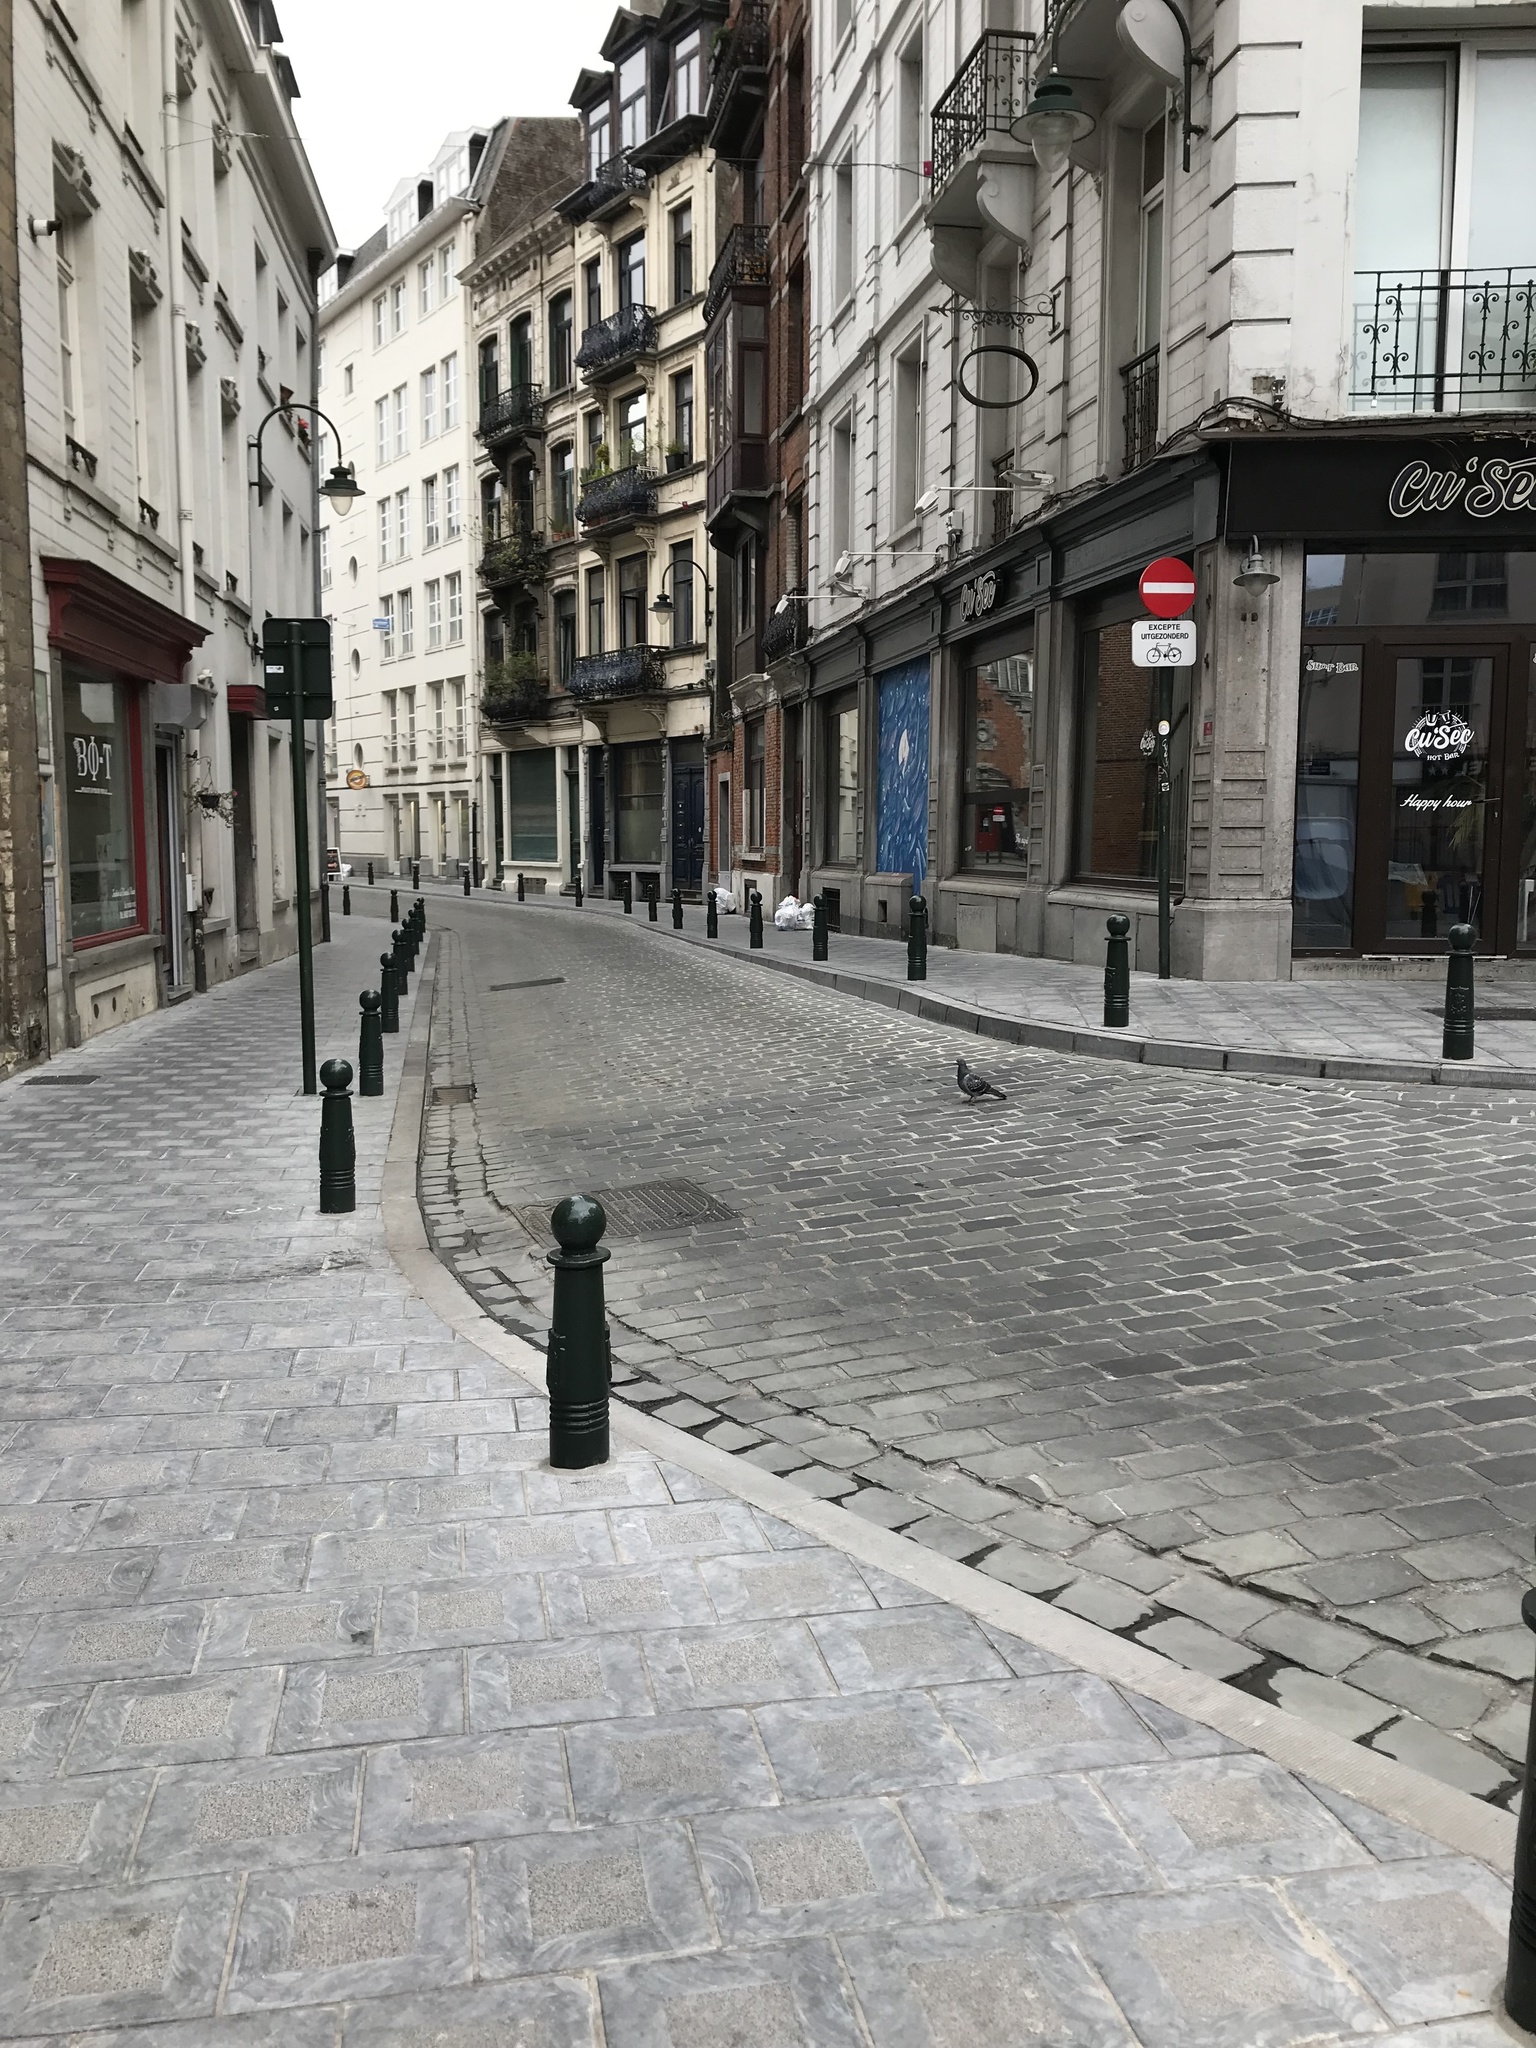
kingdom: Animalia
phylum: Chordata
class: Aves
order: Columbiformes
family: Columbidae
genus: Columba
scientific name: Columba livia
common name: Rock pigeon
